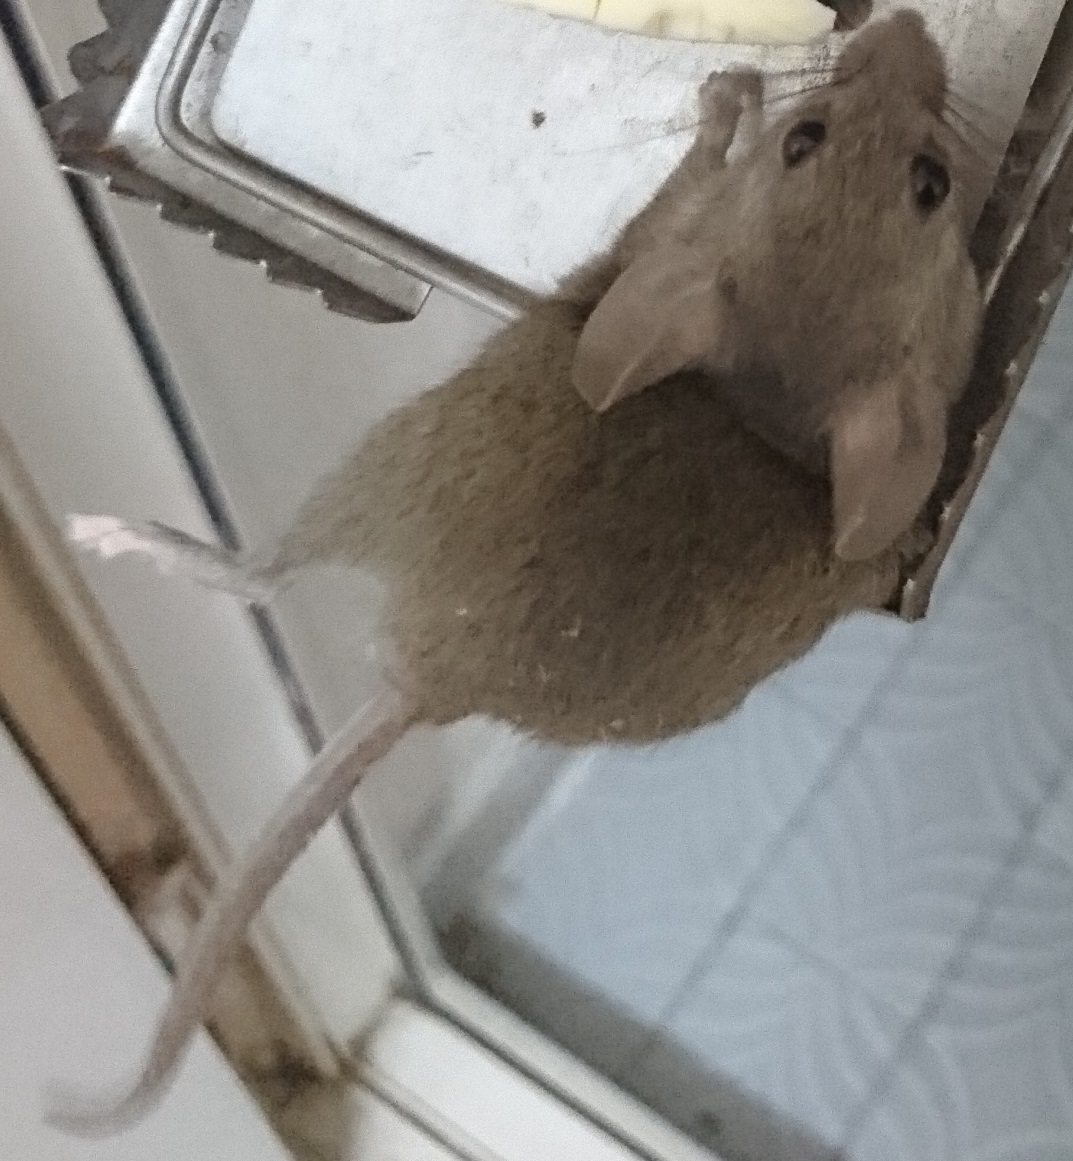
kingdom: Animalia
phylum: Chordata
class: Mammalia
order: Rodentia
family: Muridae
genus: Mus
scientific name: Mus musculus
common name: House mouse
